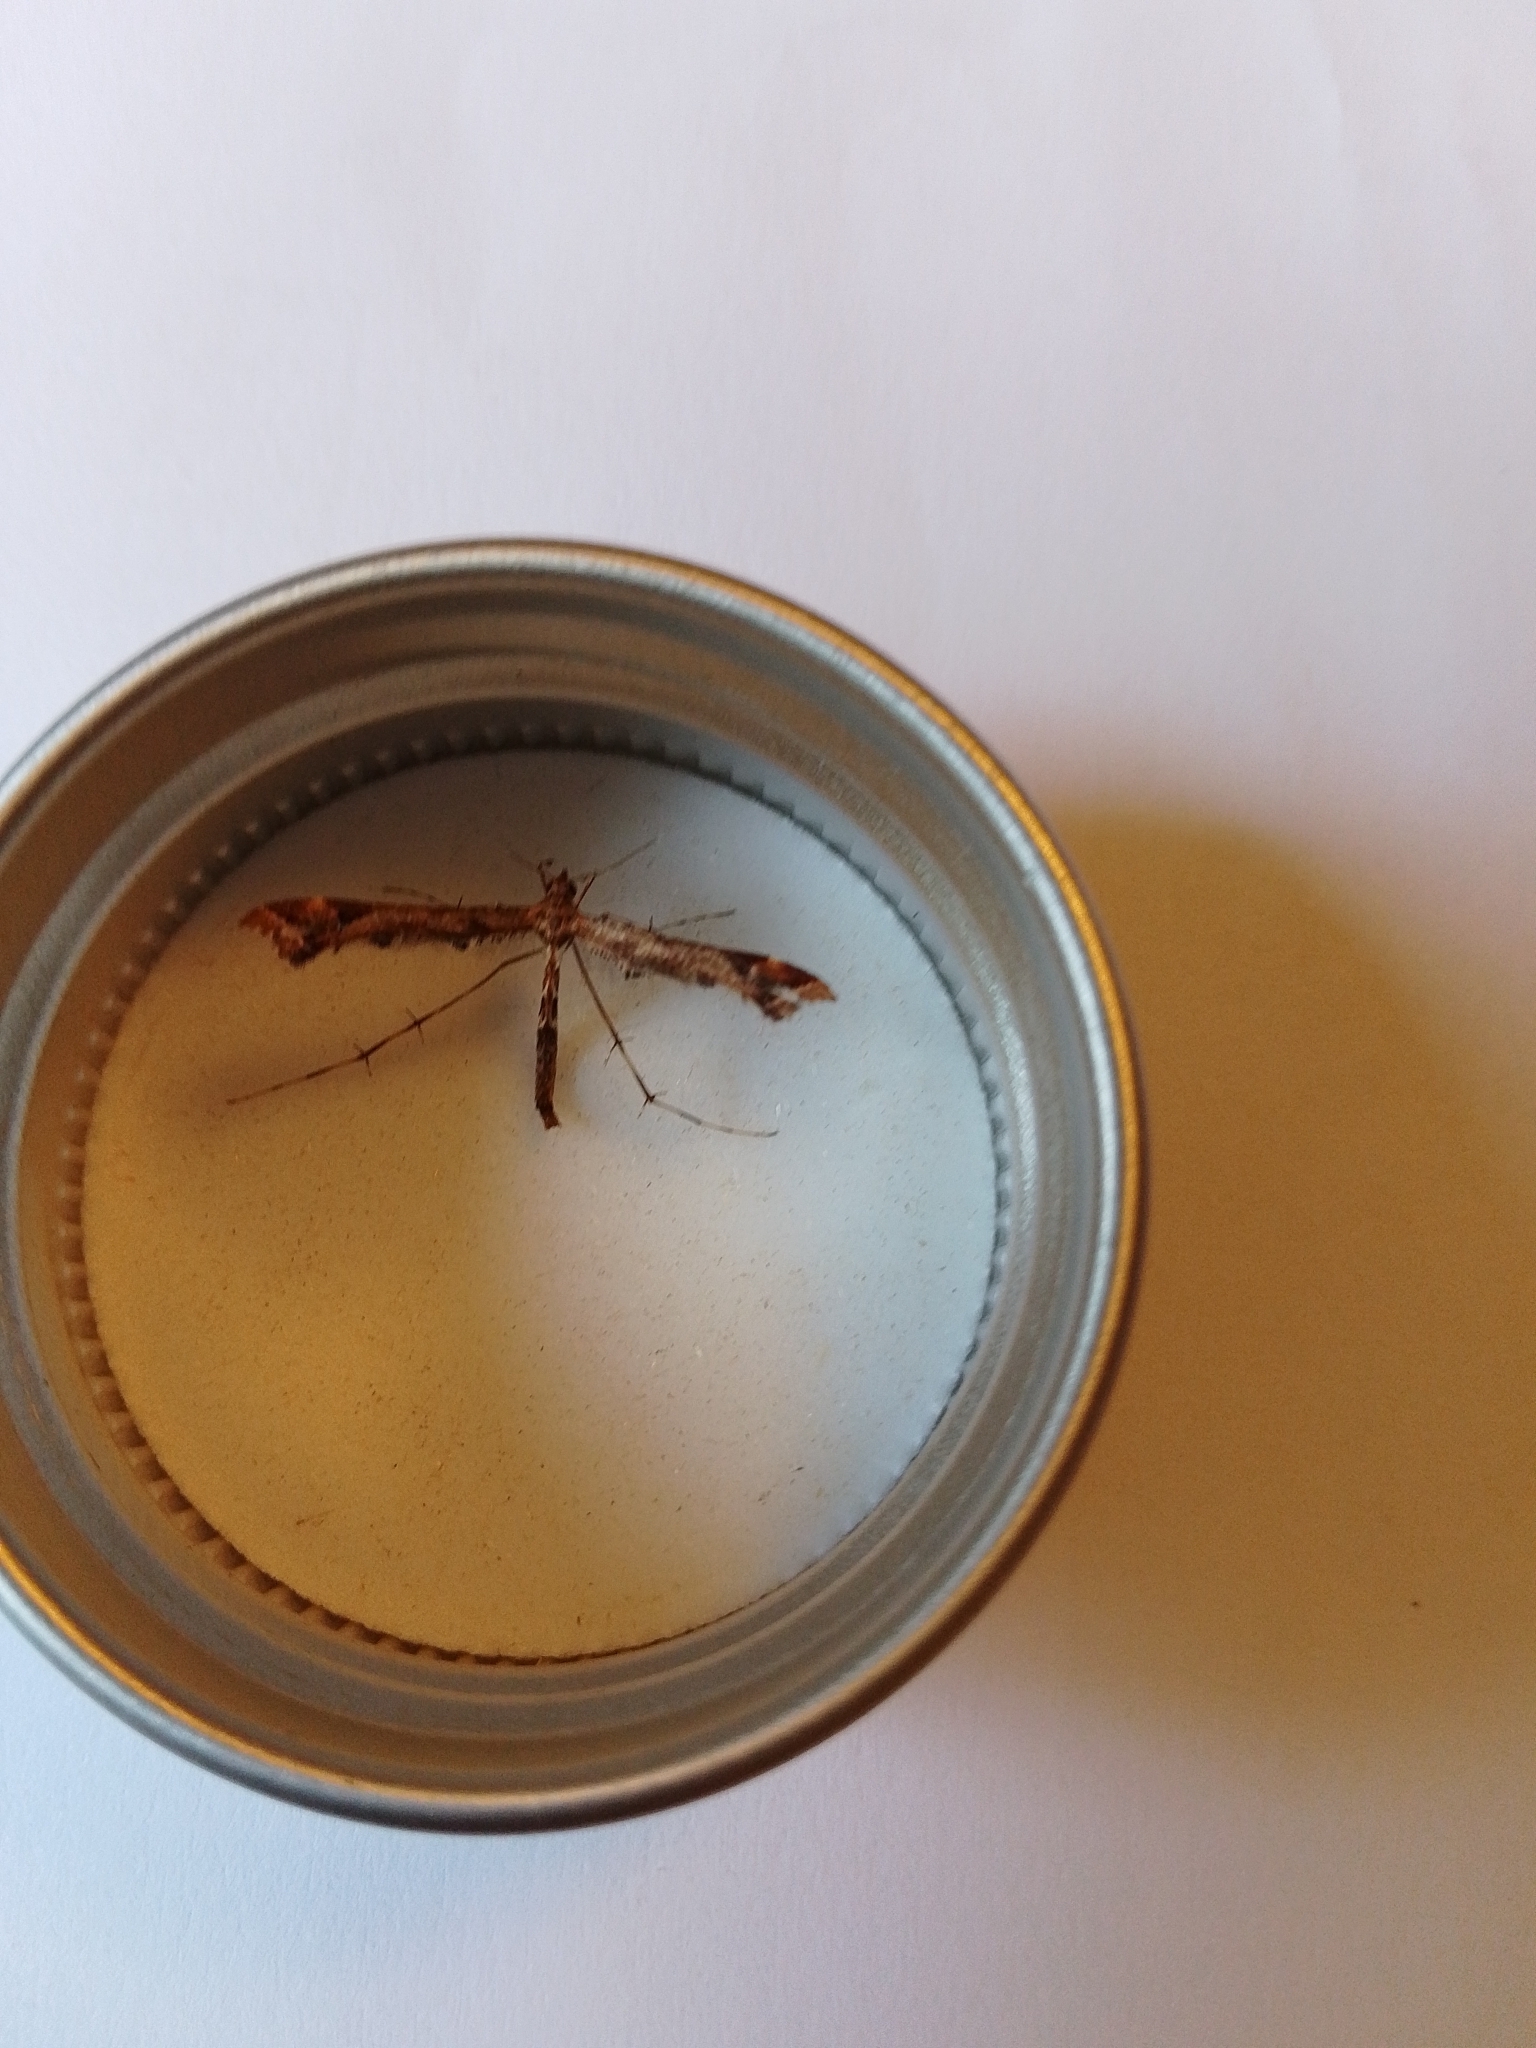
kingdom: Animalia
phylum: Arthropoda
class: Insecta
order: Lepidoptera
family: Pterophoridae
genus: Amblyptilia
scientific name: Amblyptilia acanthadactyla
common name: Beautiful plume
